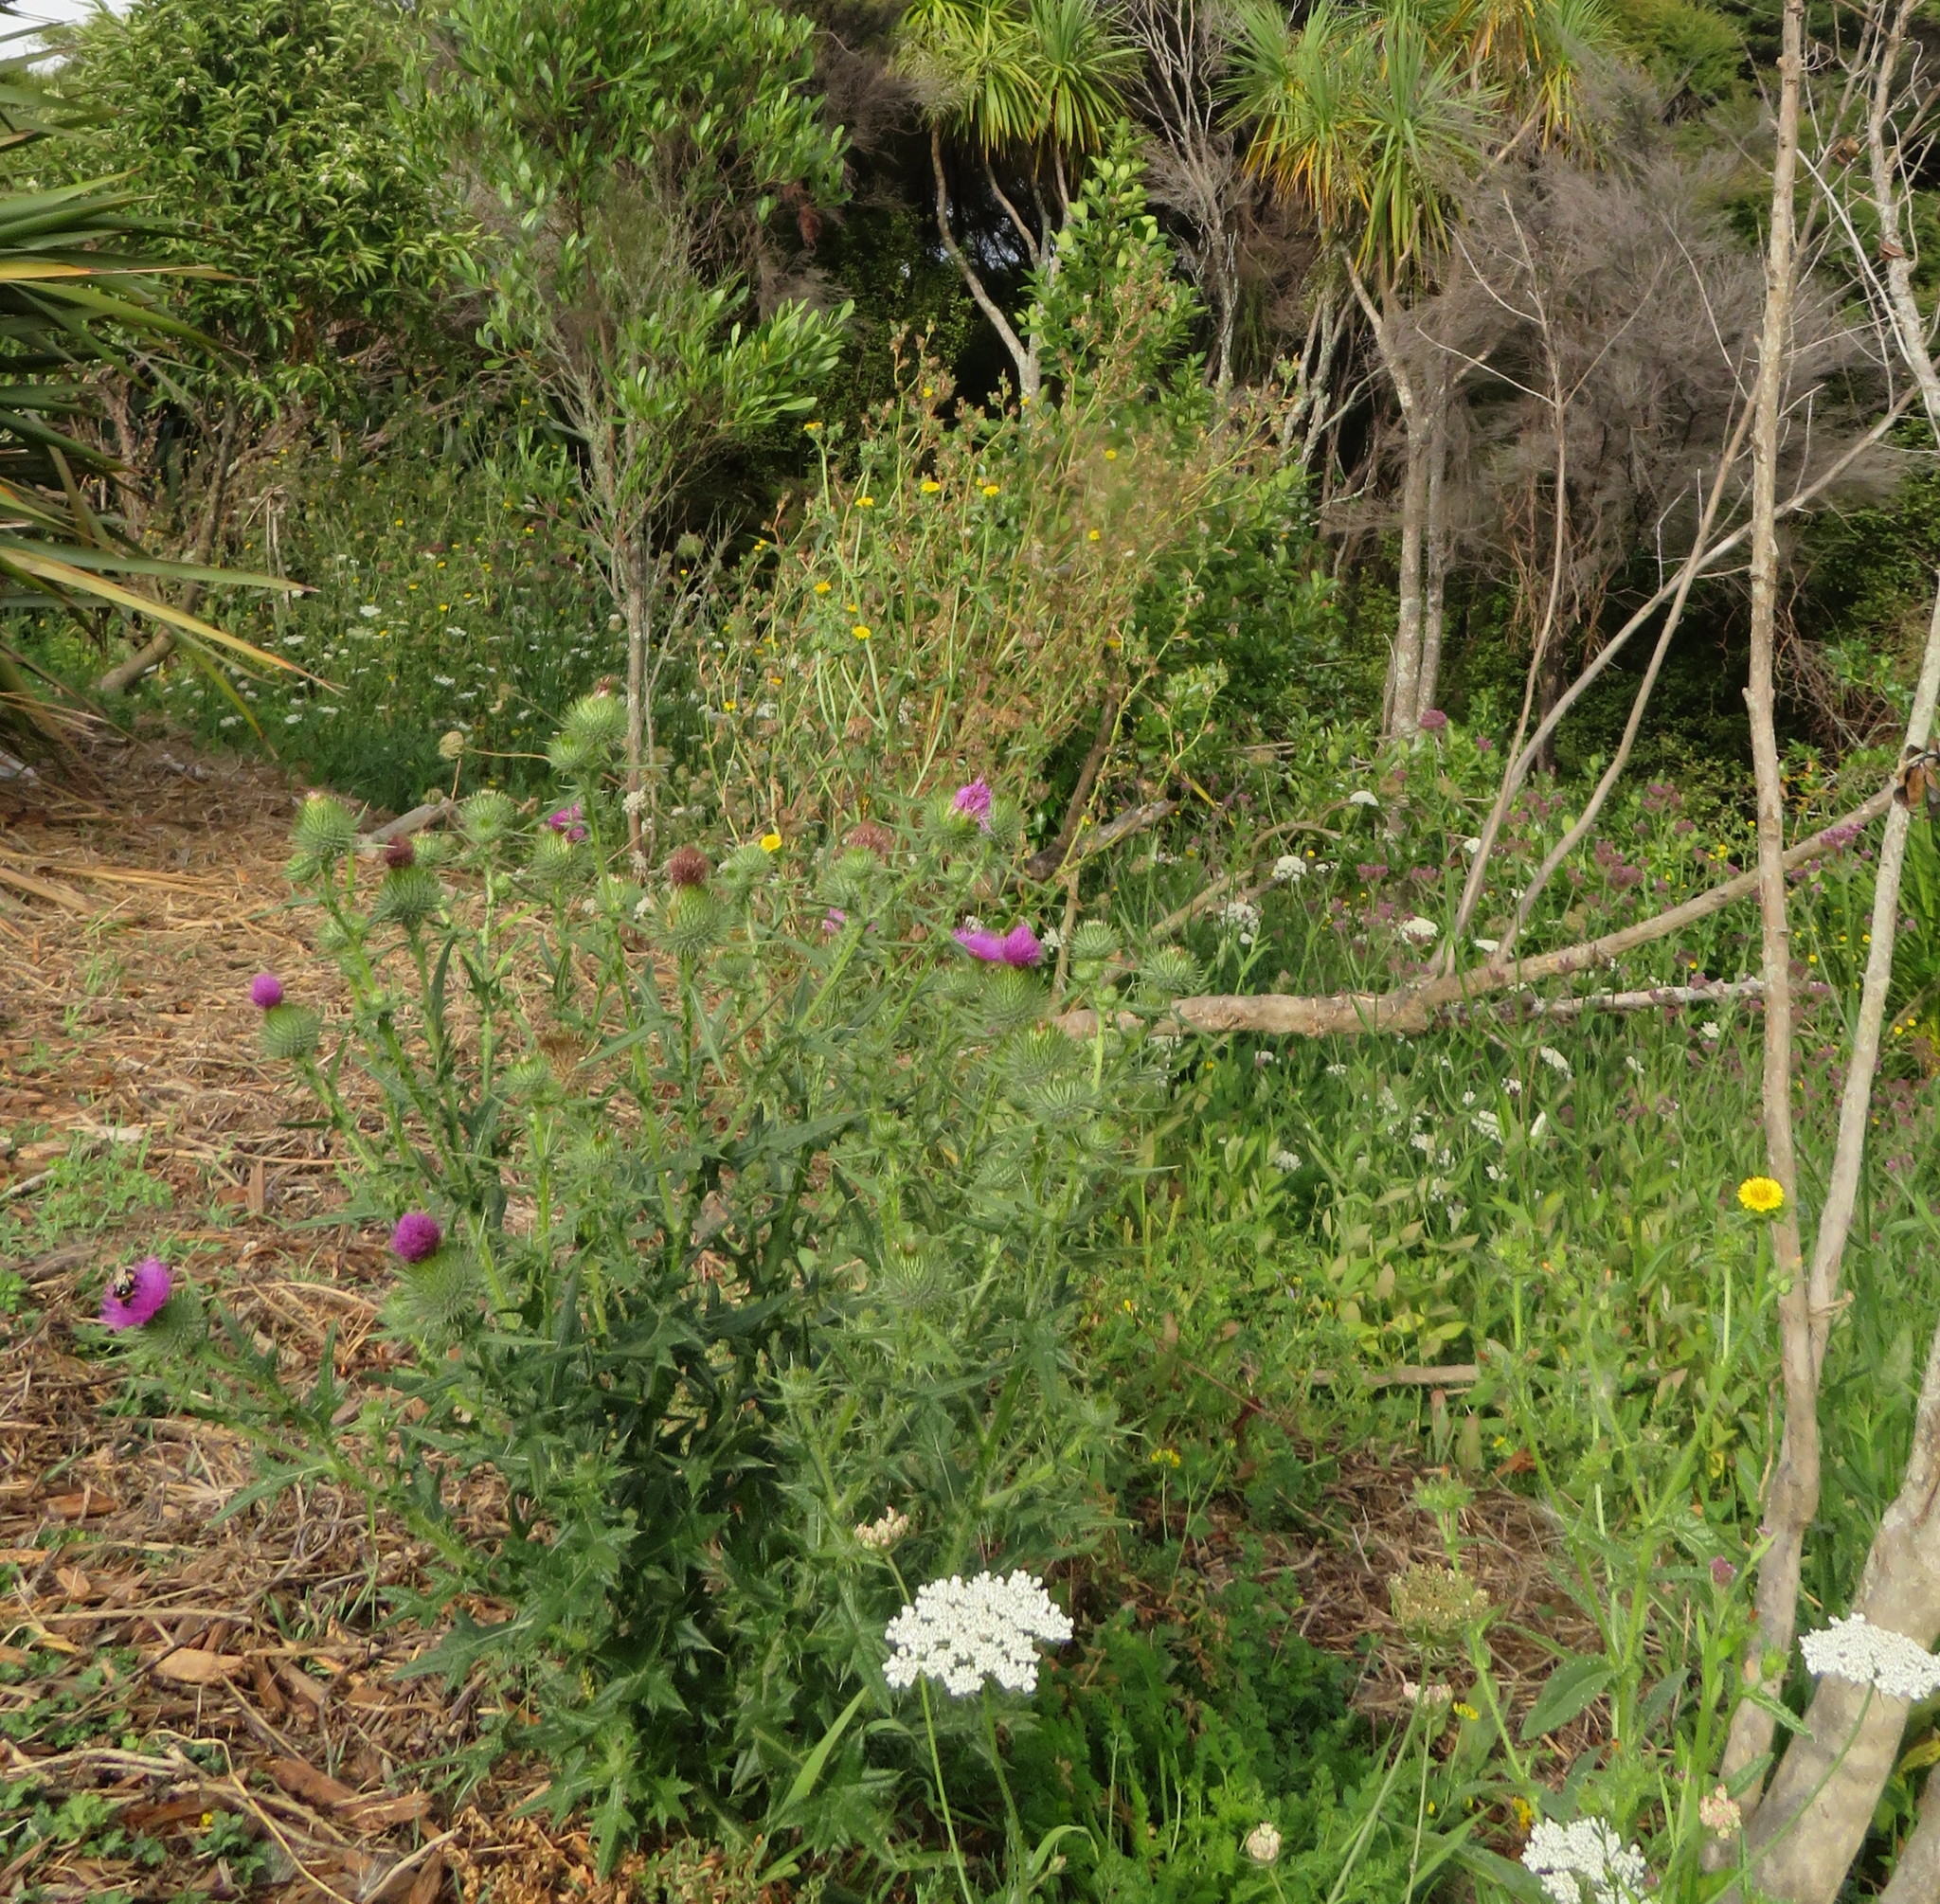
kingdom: Animalia
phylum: Arthropoda
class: Insecta
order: Hymenoptera
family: Apidae
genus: Bombus
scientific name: Bombus terrestris
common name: Buff-tailed bumblebee
